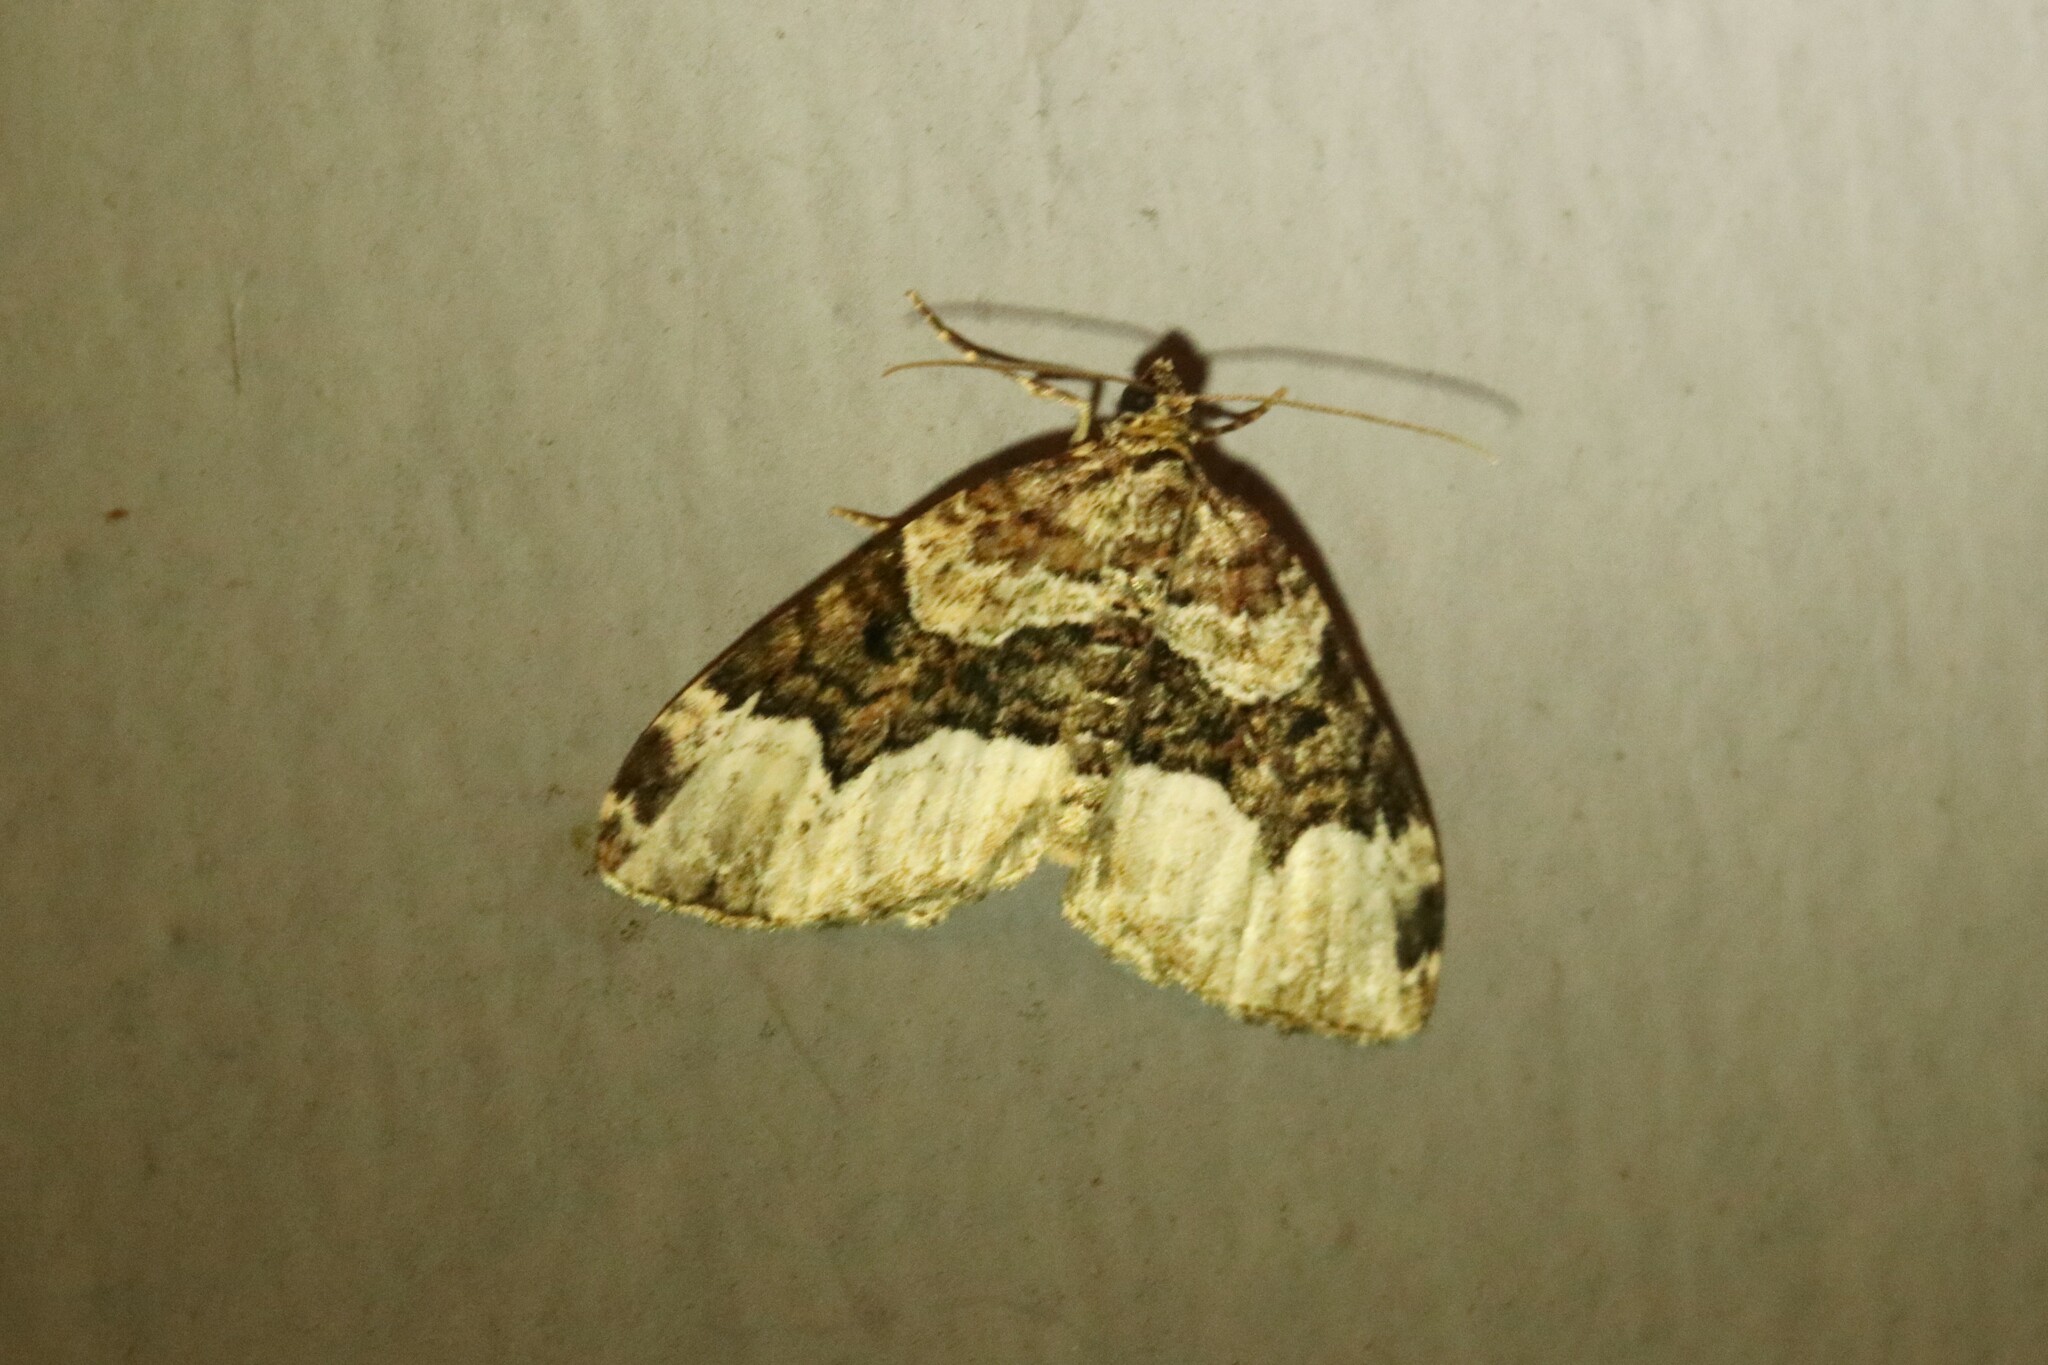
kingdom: Animalia
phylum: Arthropoda
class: Insecta
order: Lepidoptera
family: Geometridae
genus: Euphyia
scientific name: Euphyia intermediata
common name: Sharp-angled carpet
